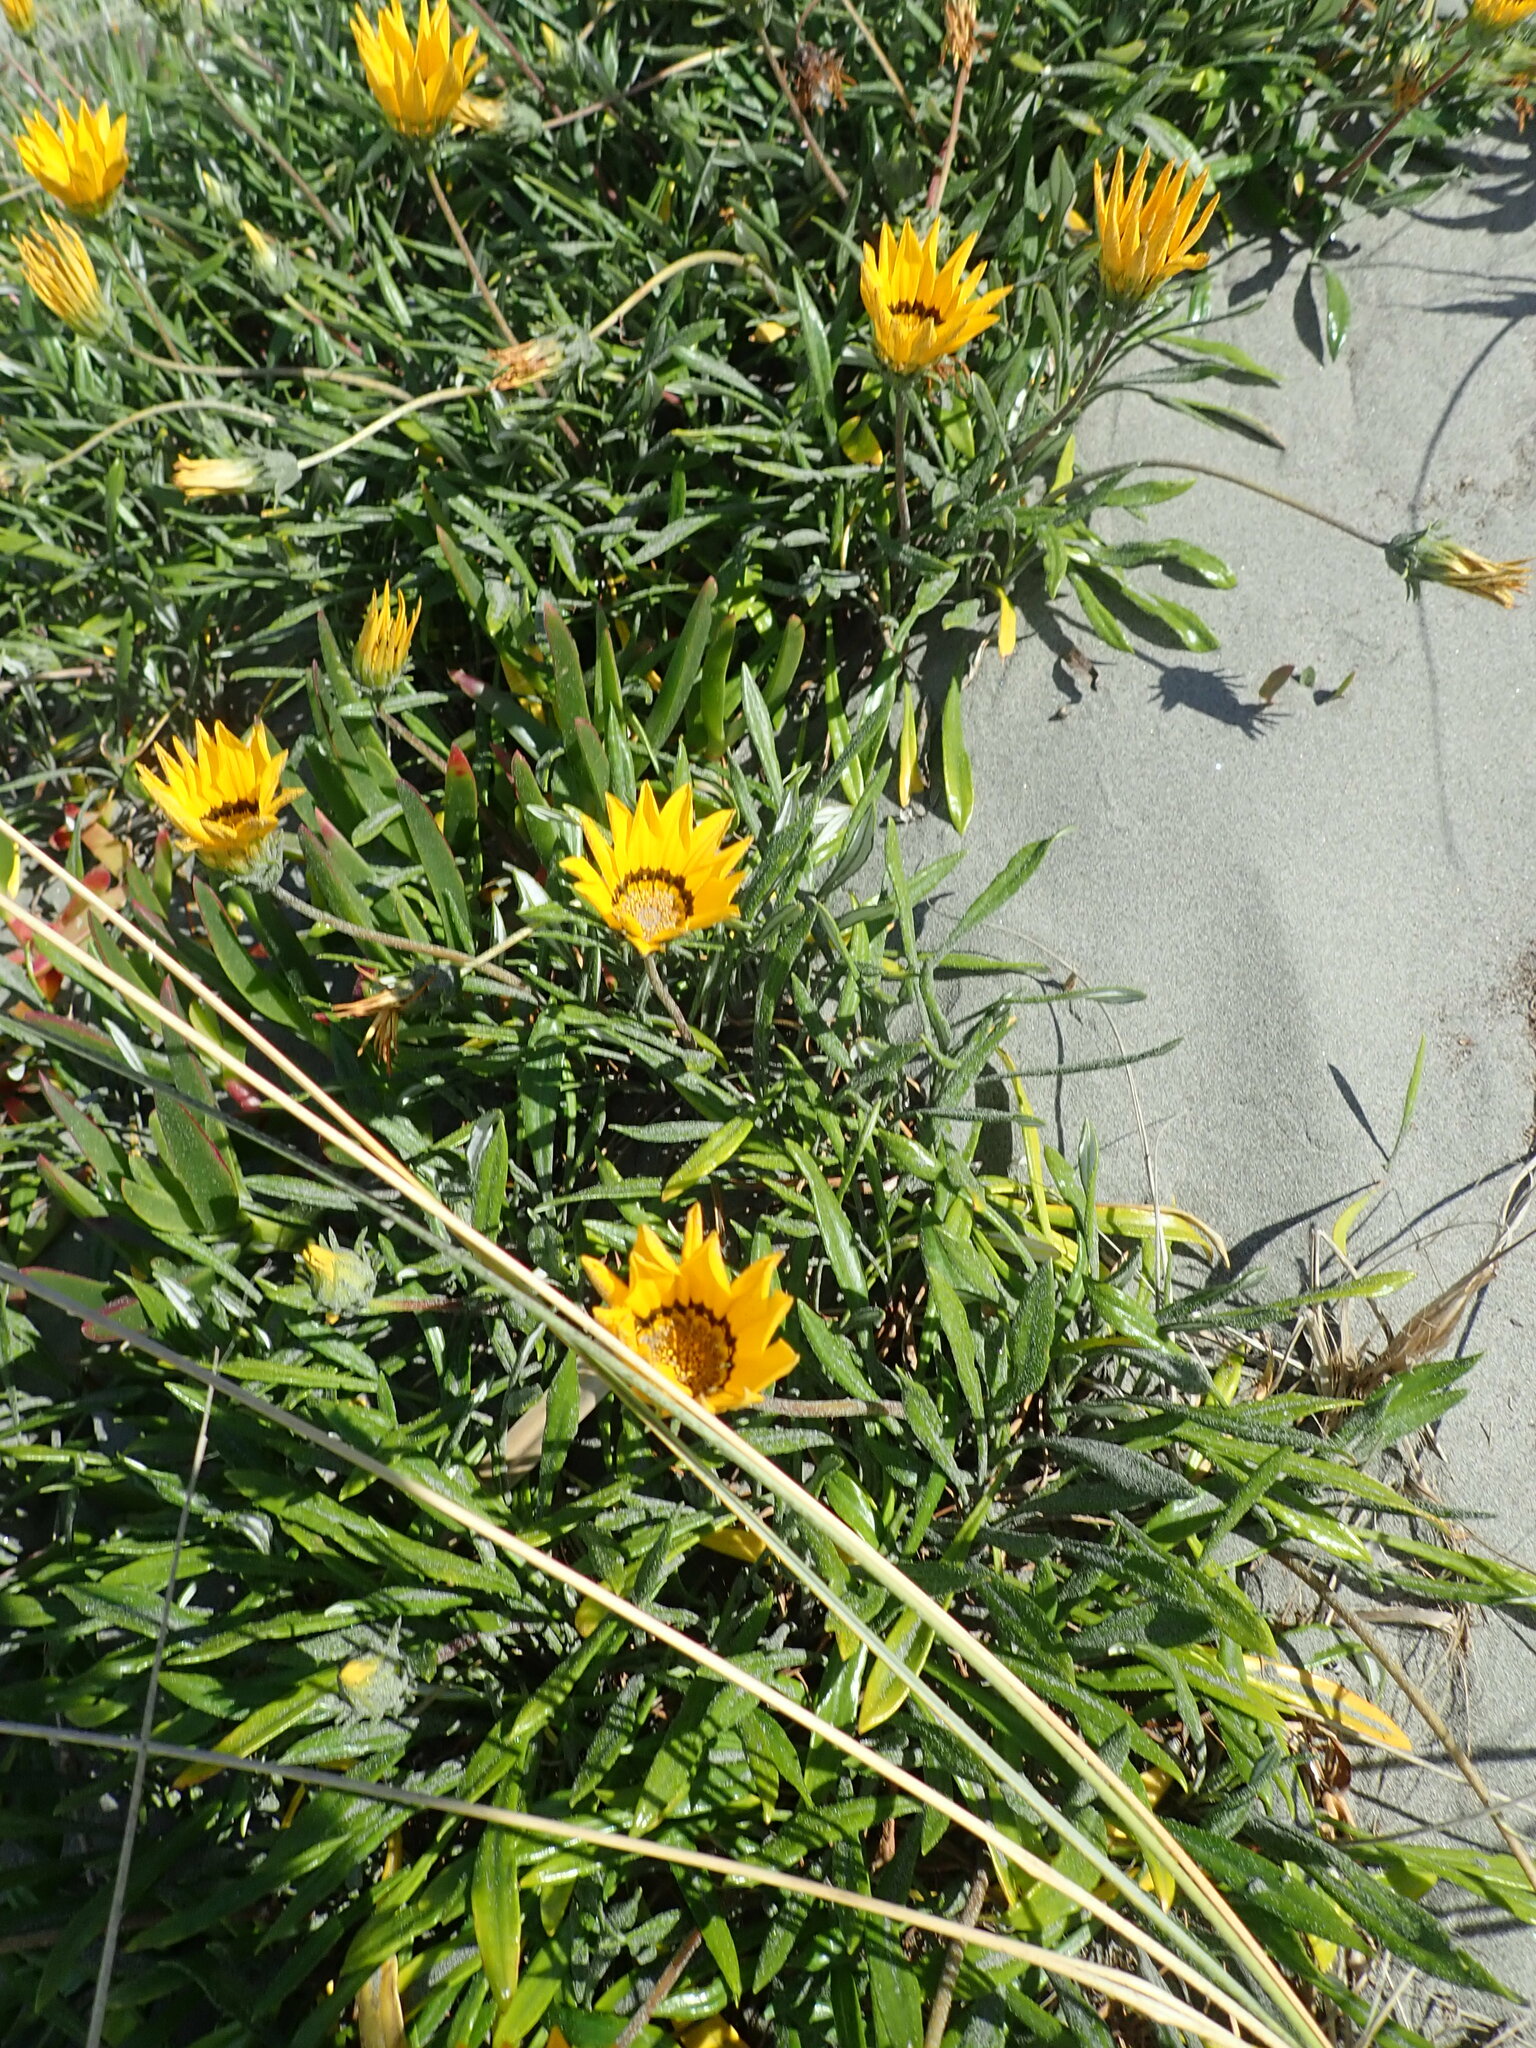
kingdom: Plantae
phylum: Tracheophyta
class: Magnoliopsida
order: Asterales
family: Asteraceae
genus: Gazania
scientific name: Gazania splendens
